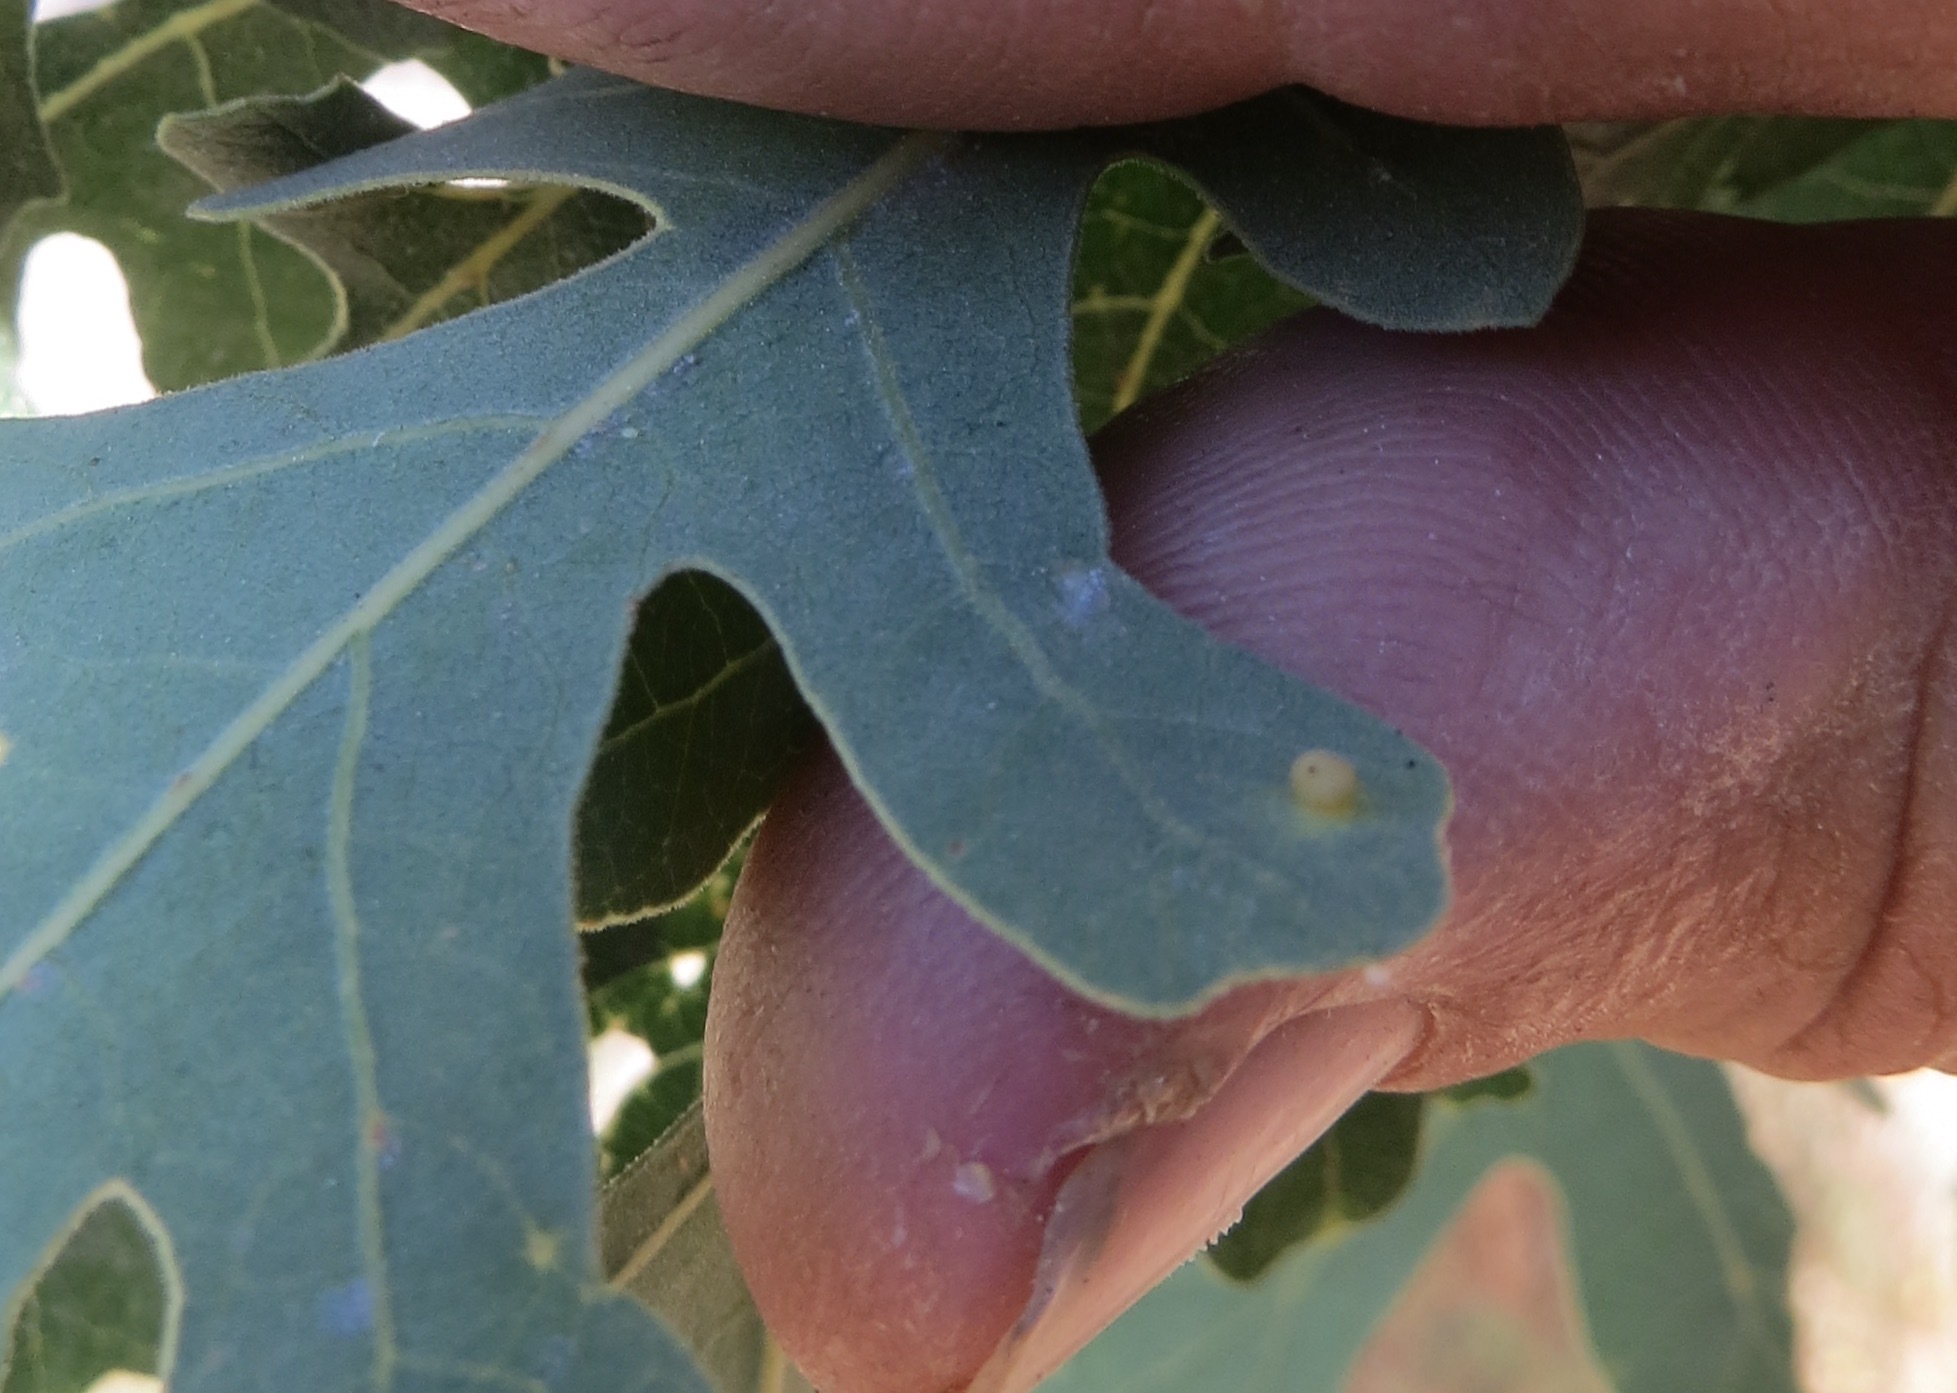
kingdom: Animalia
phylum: Arthropoda
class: Insecta
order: Hymenoptera
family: Cynipidae
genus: Neuroterus
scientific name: Neuroterus saltarius
